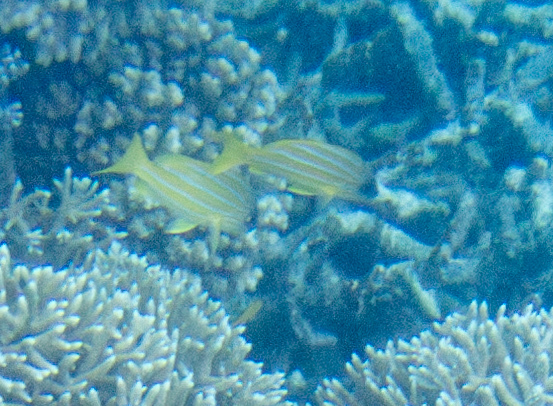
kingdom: Animalia
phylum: Chordata
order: Perciformes
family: Lutjanidae
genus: Lutjanus
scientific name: Lutjanus kasmira
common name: Common bluestripe snapper
